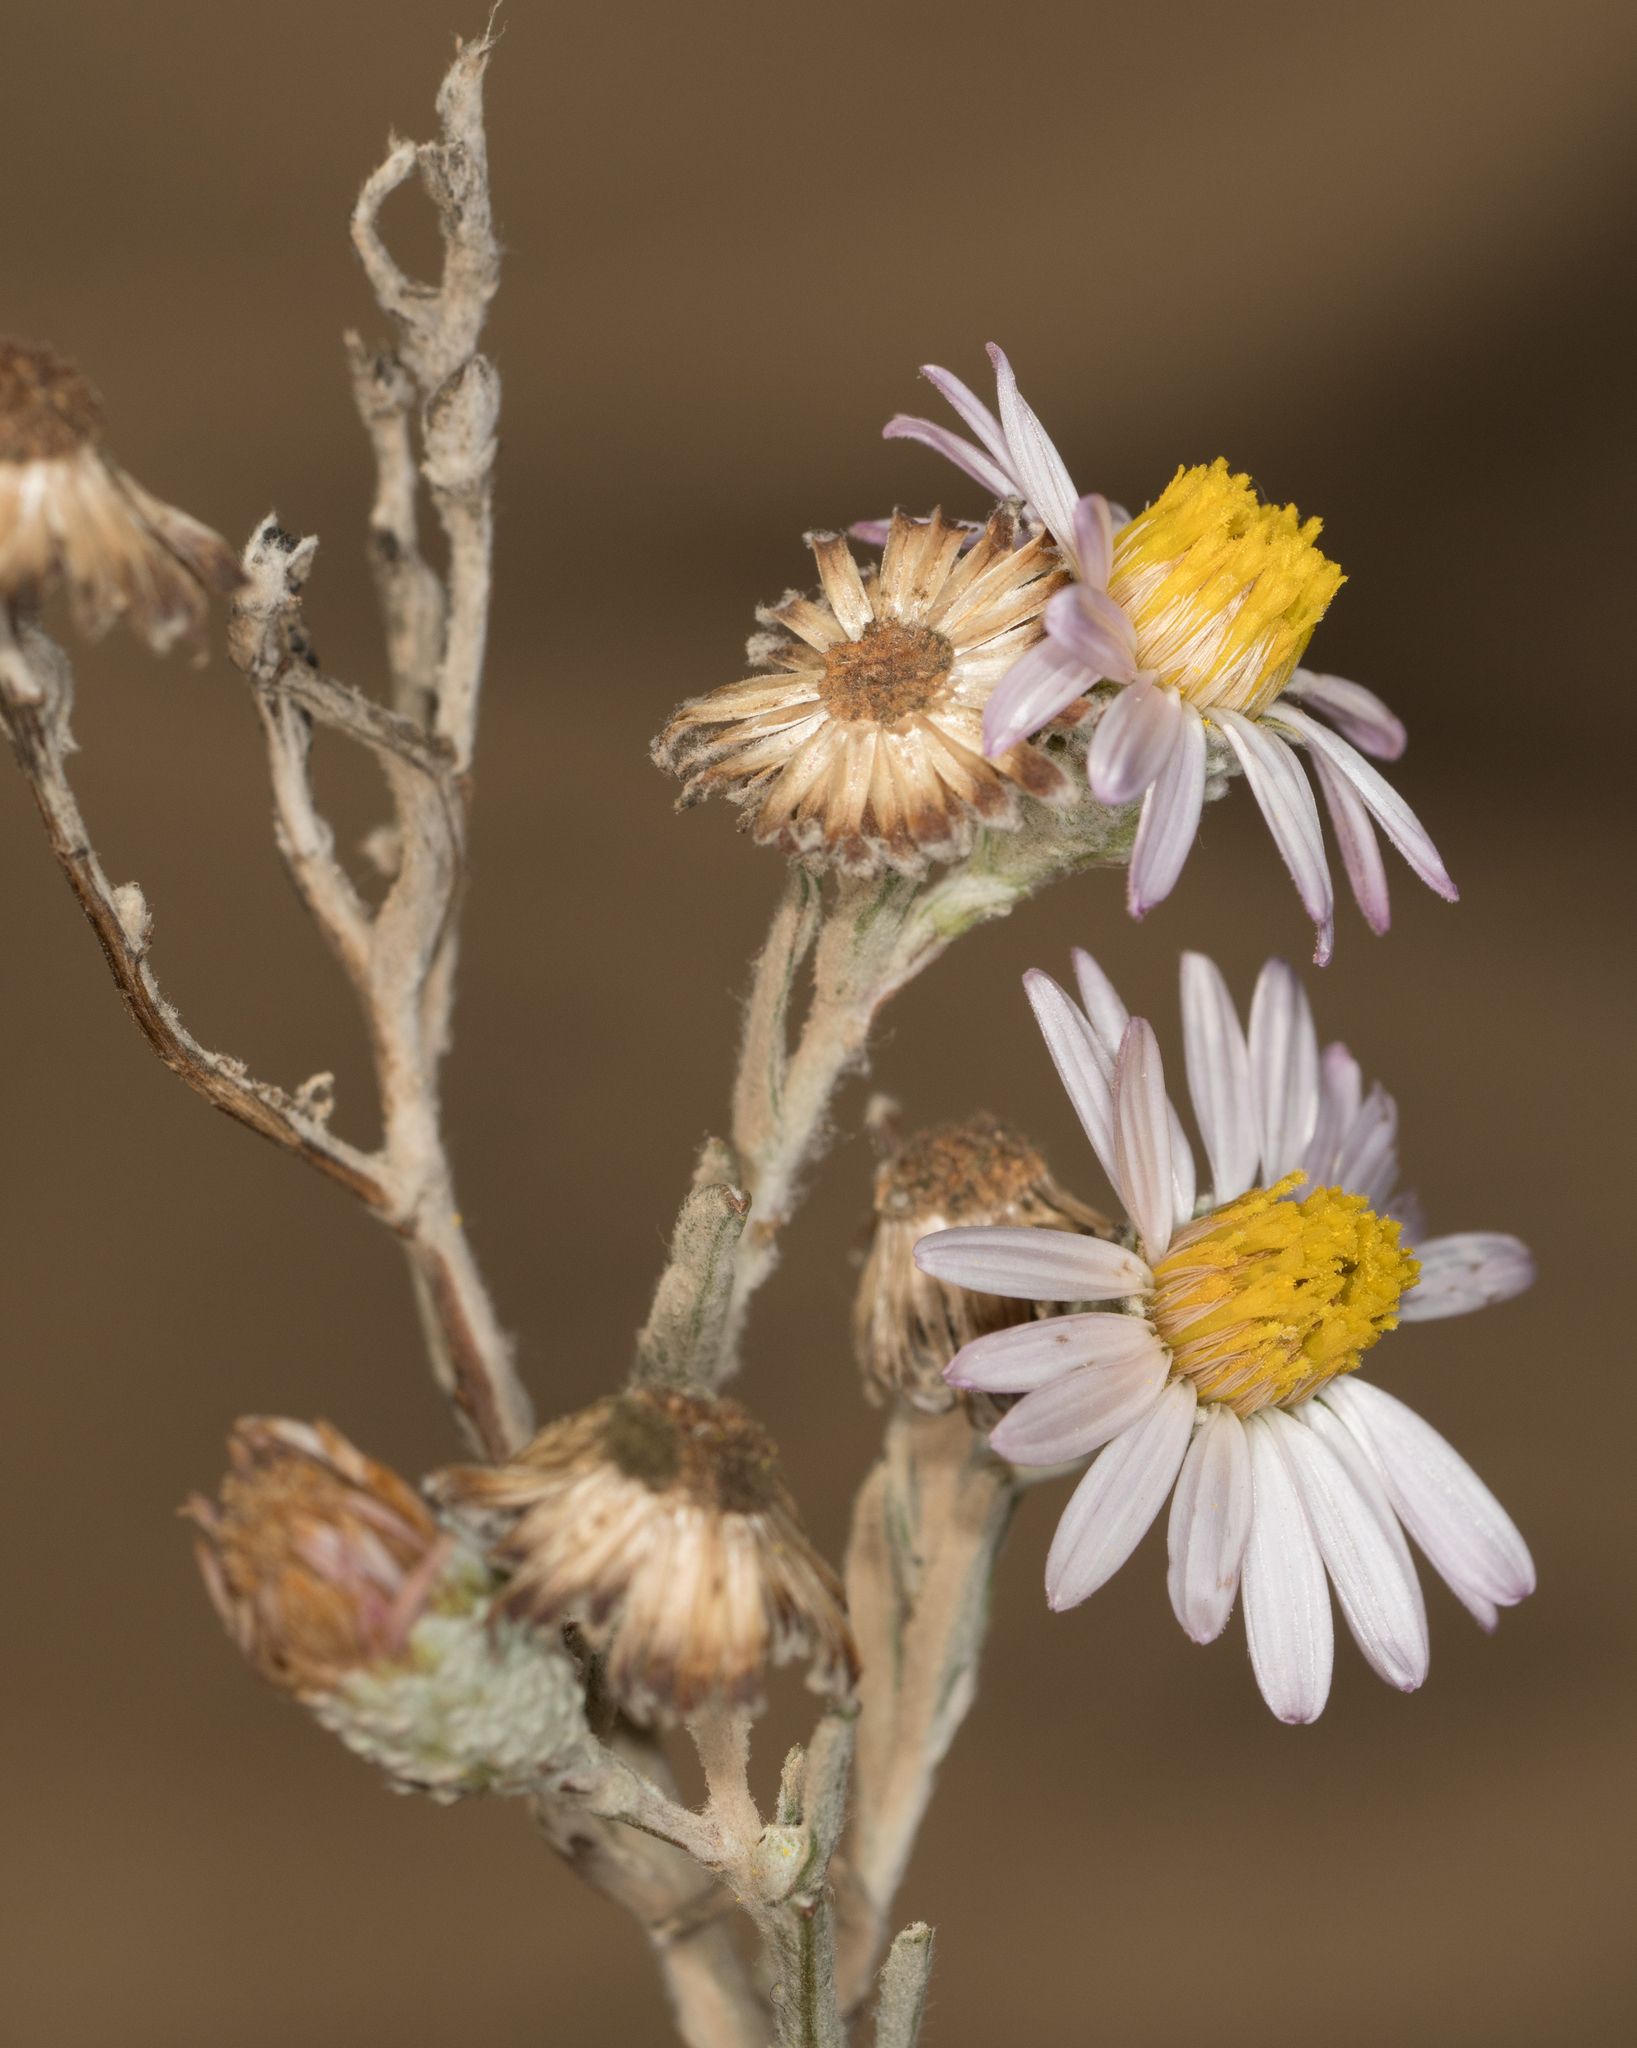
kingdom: Plantae
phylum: Tracheophyta
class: Magnoliopsida
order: Asterales
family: Asteraceae
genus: Corethrogyne
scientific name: Corethrogyne filaginifolia
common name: Sand-aster
